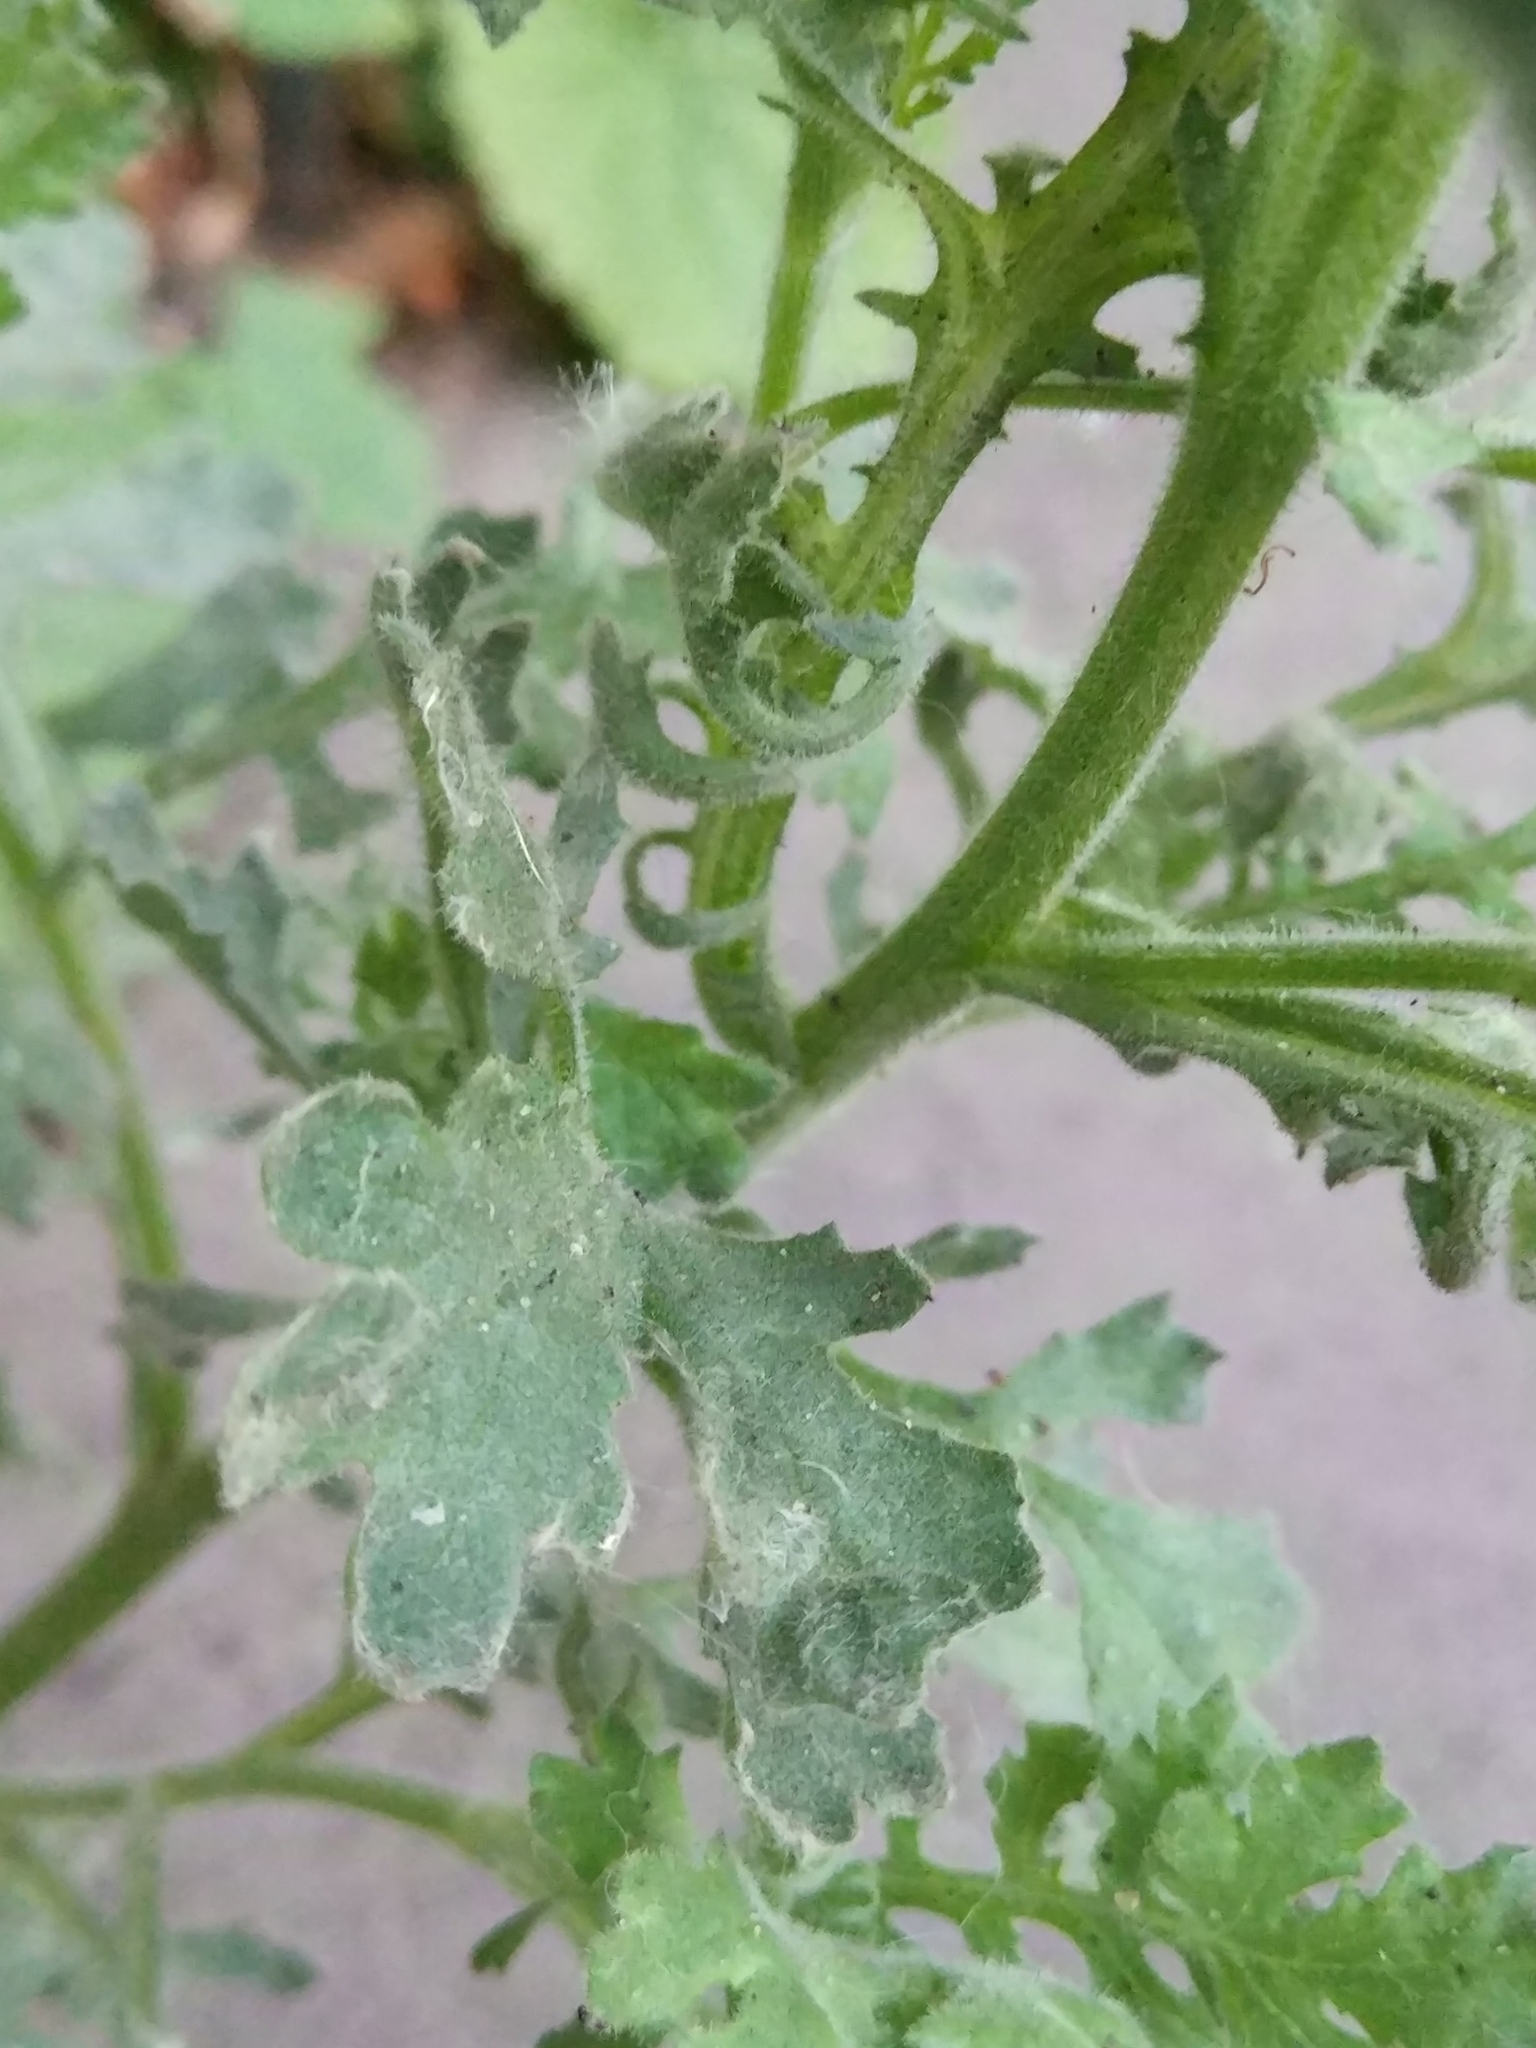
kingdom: Plantae
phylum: Tracheophyta
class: Magnoliopsida
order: Asterales
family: Asteraceae
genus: Senecio
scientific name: Senecio viscosus
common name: Sticky groundsel
